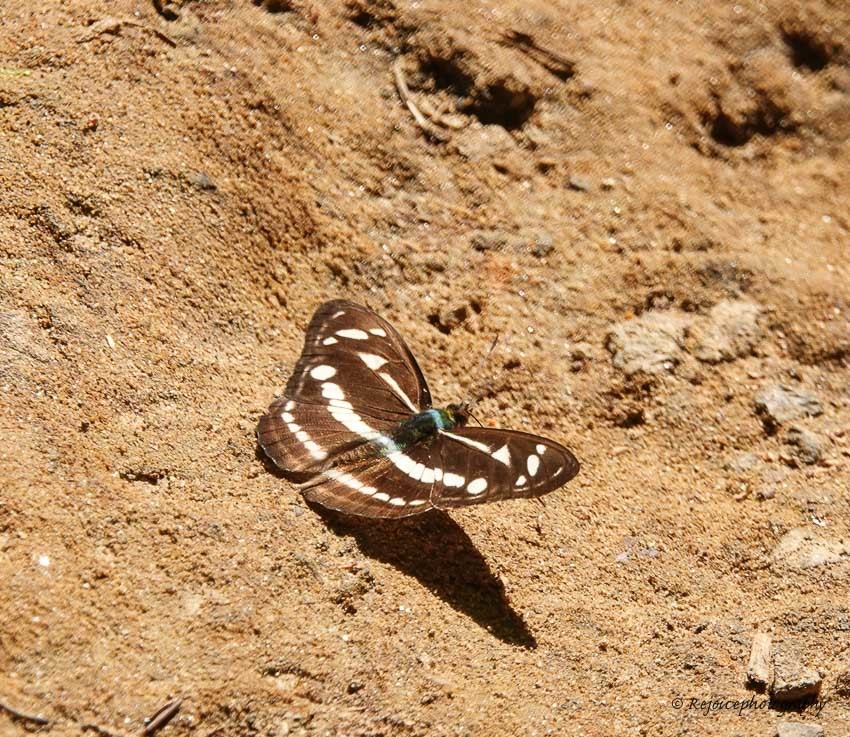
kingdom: Animalia
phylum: Arthropoda
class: Insecta
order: Lepidoptera
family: Nymphalidae
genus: Parathyma
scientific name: Parathyma kanwa
